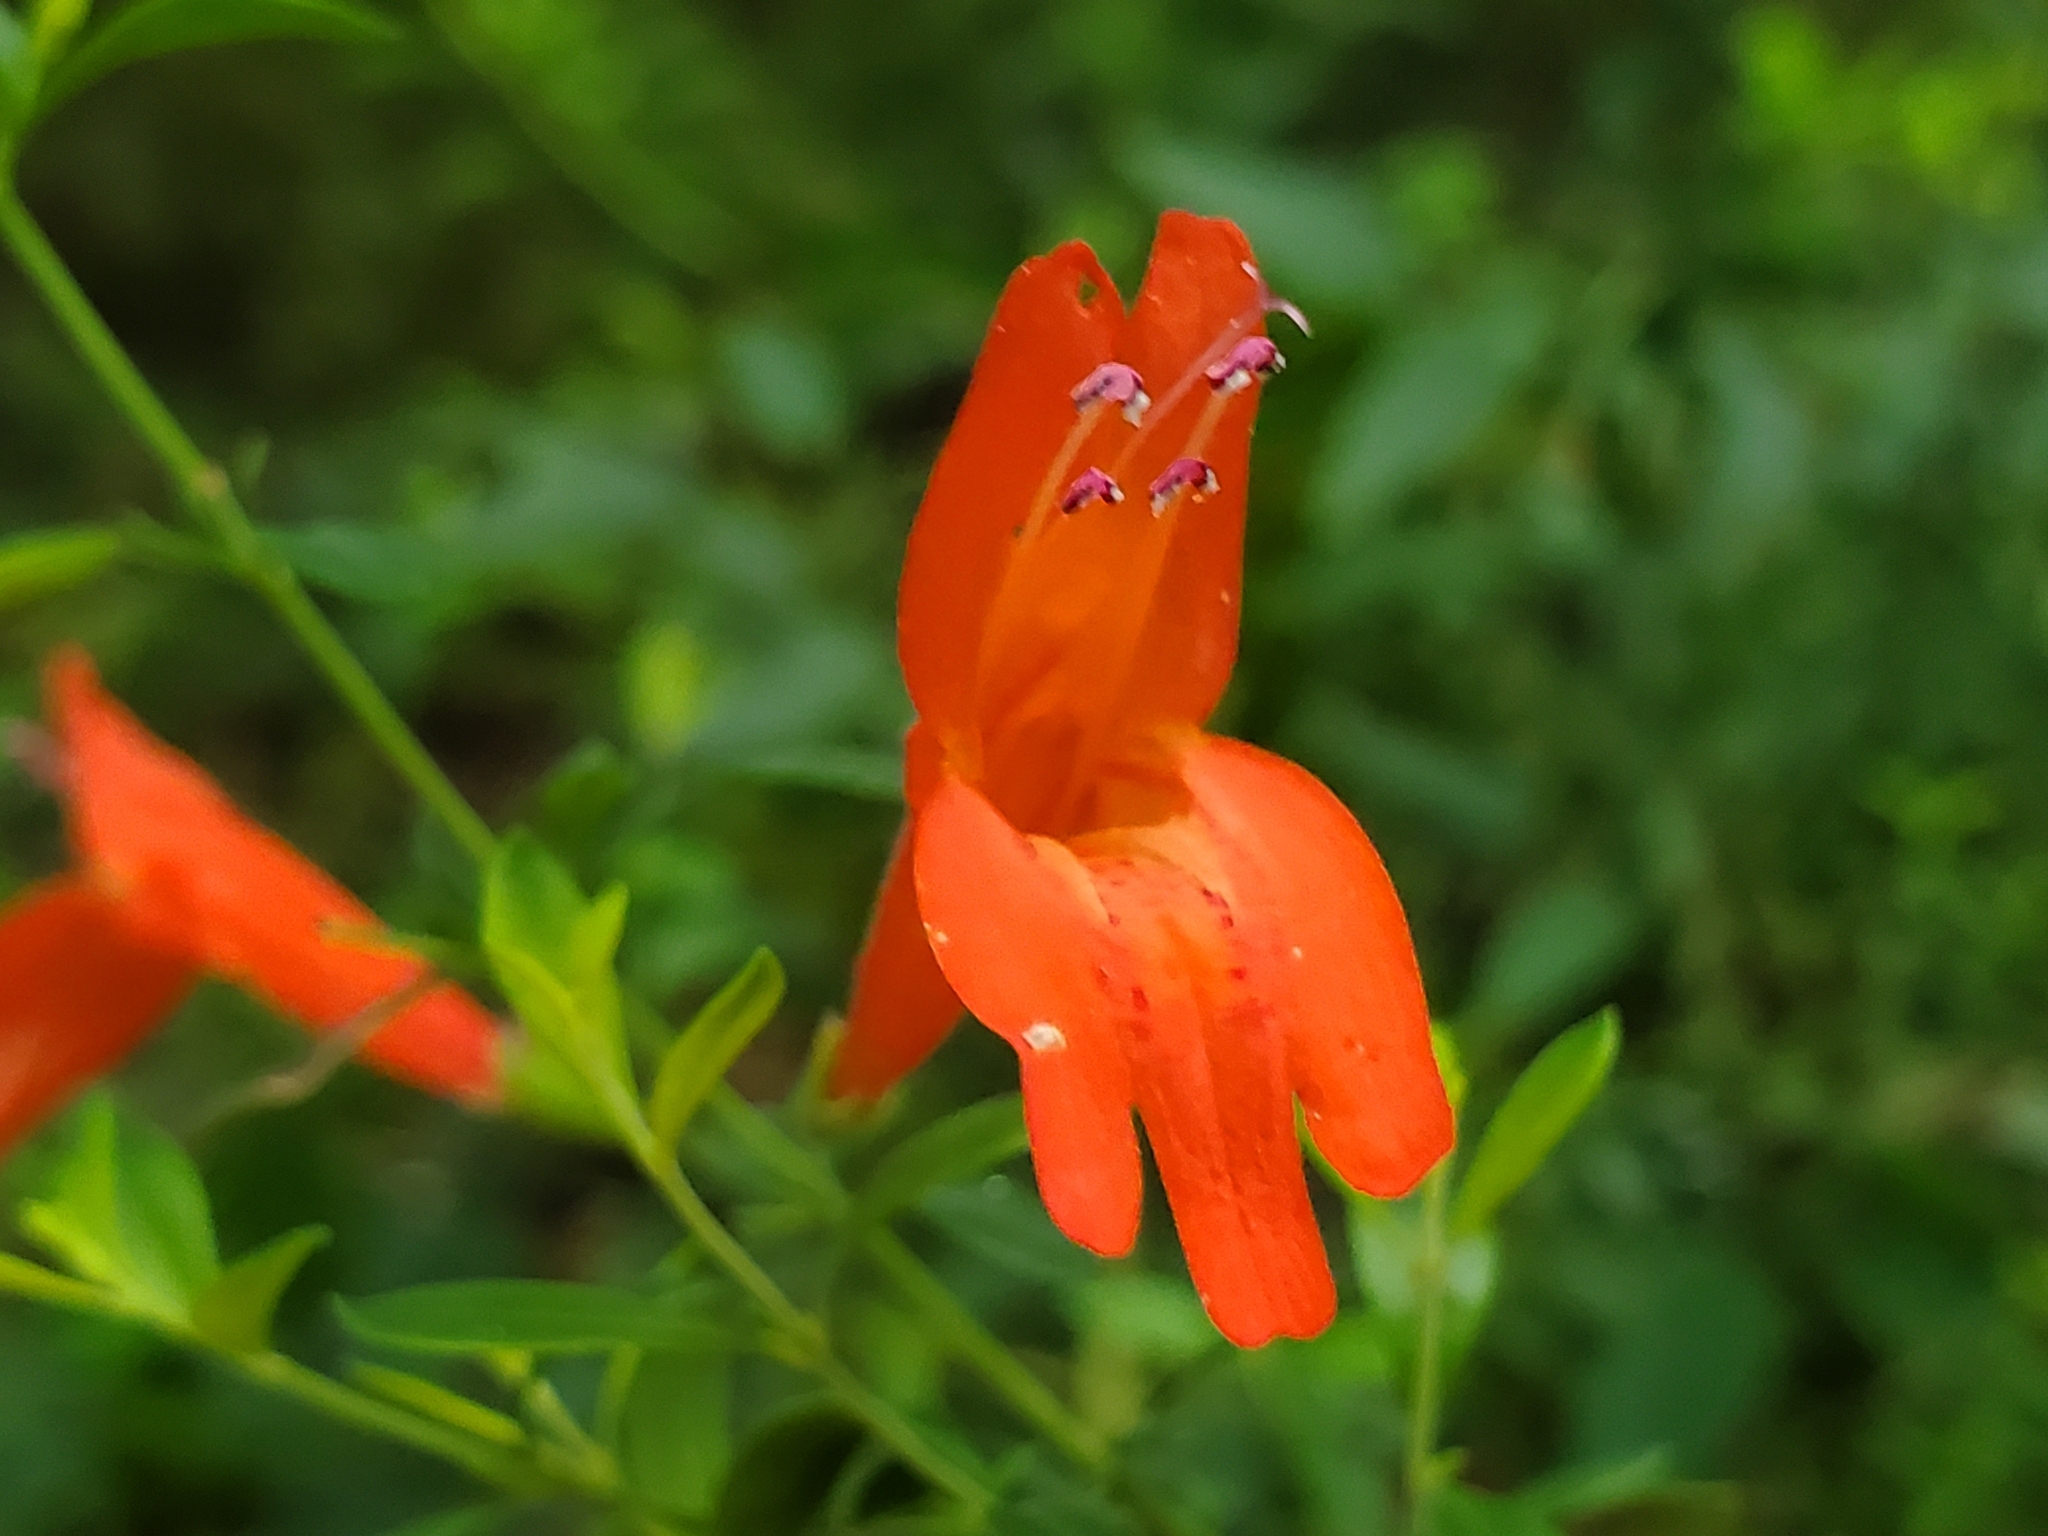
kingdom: Plantae
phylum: Tracheophyta
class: Magnoliopsida
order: Lamiales
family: Lamiaceae
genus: Clinopodium
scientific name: Clinopodium coccineum
